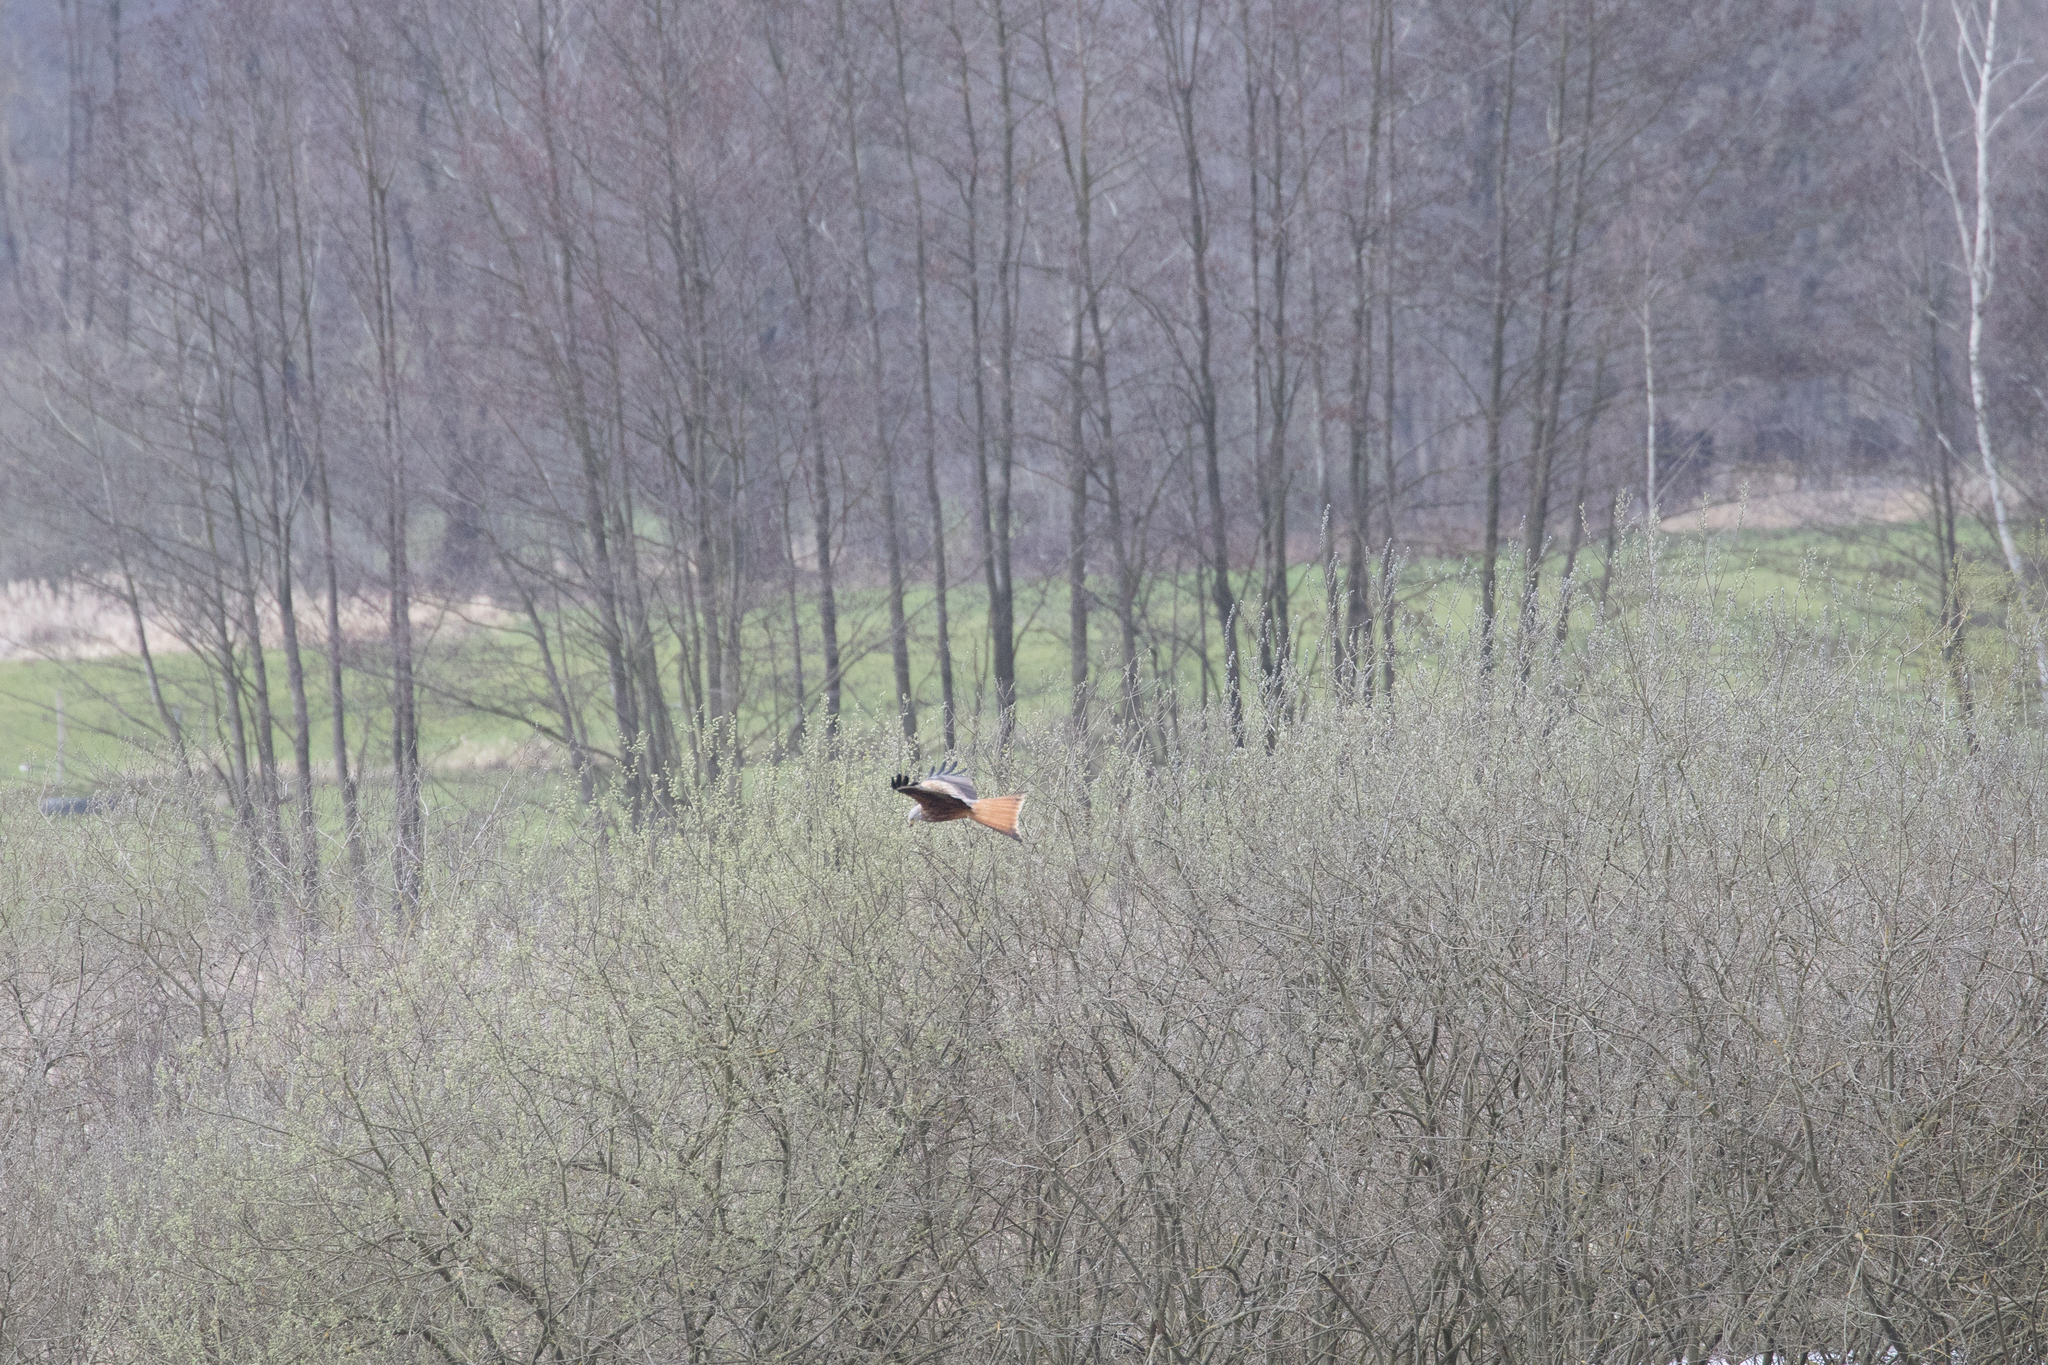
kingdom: Animalia
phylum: Chordata
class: Aves
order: Accipitriformes
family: Accipitridae
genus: Milvus
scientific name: Milvus milvus
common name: Red kite
